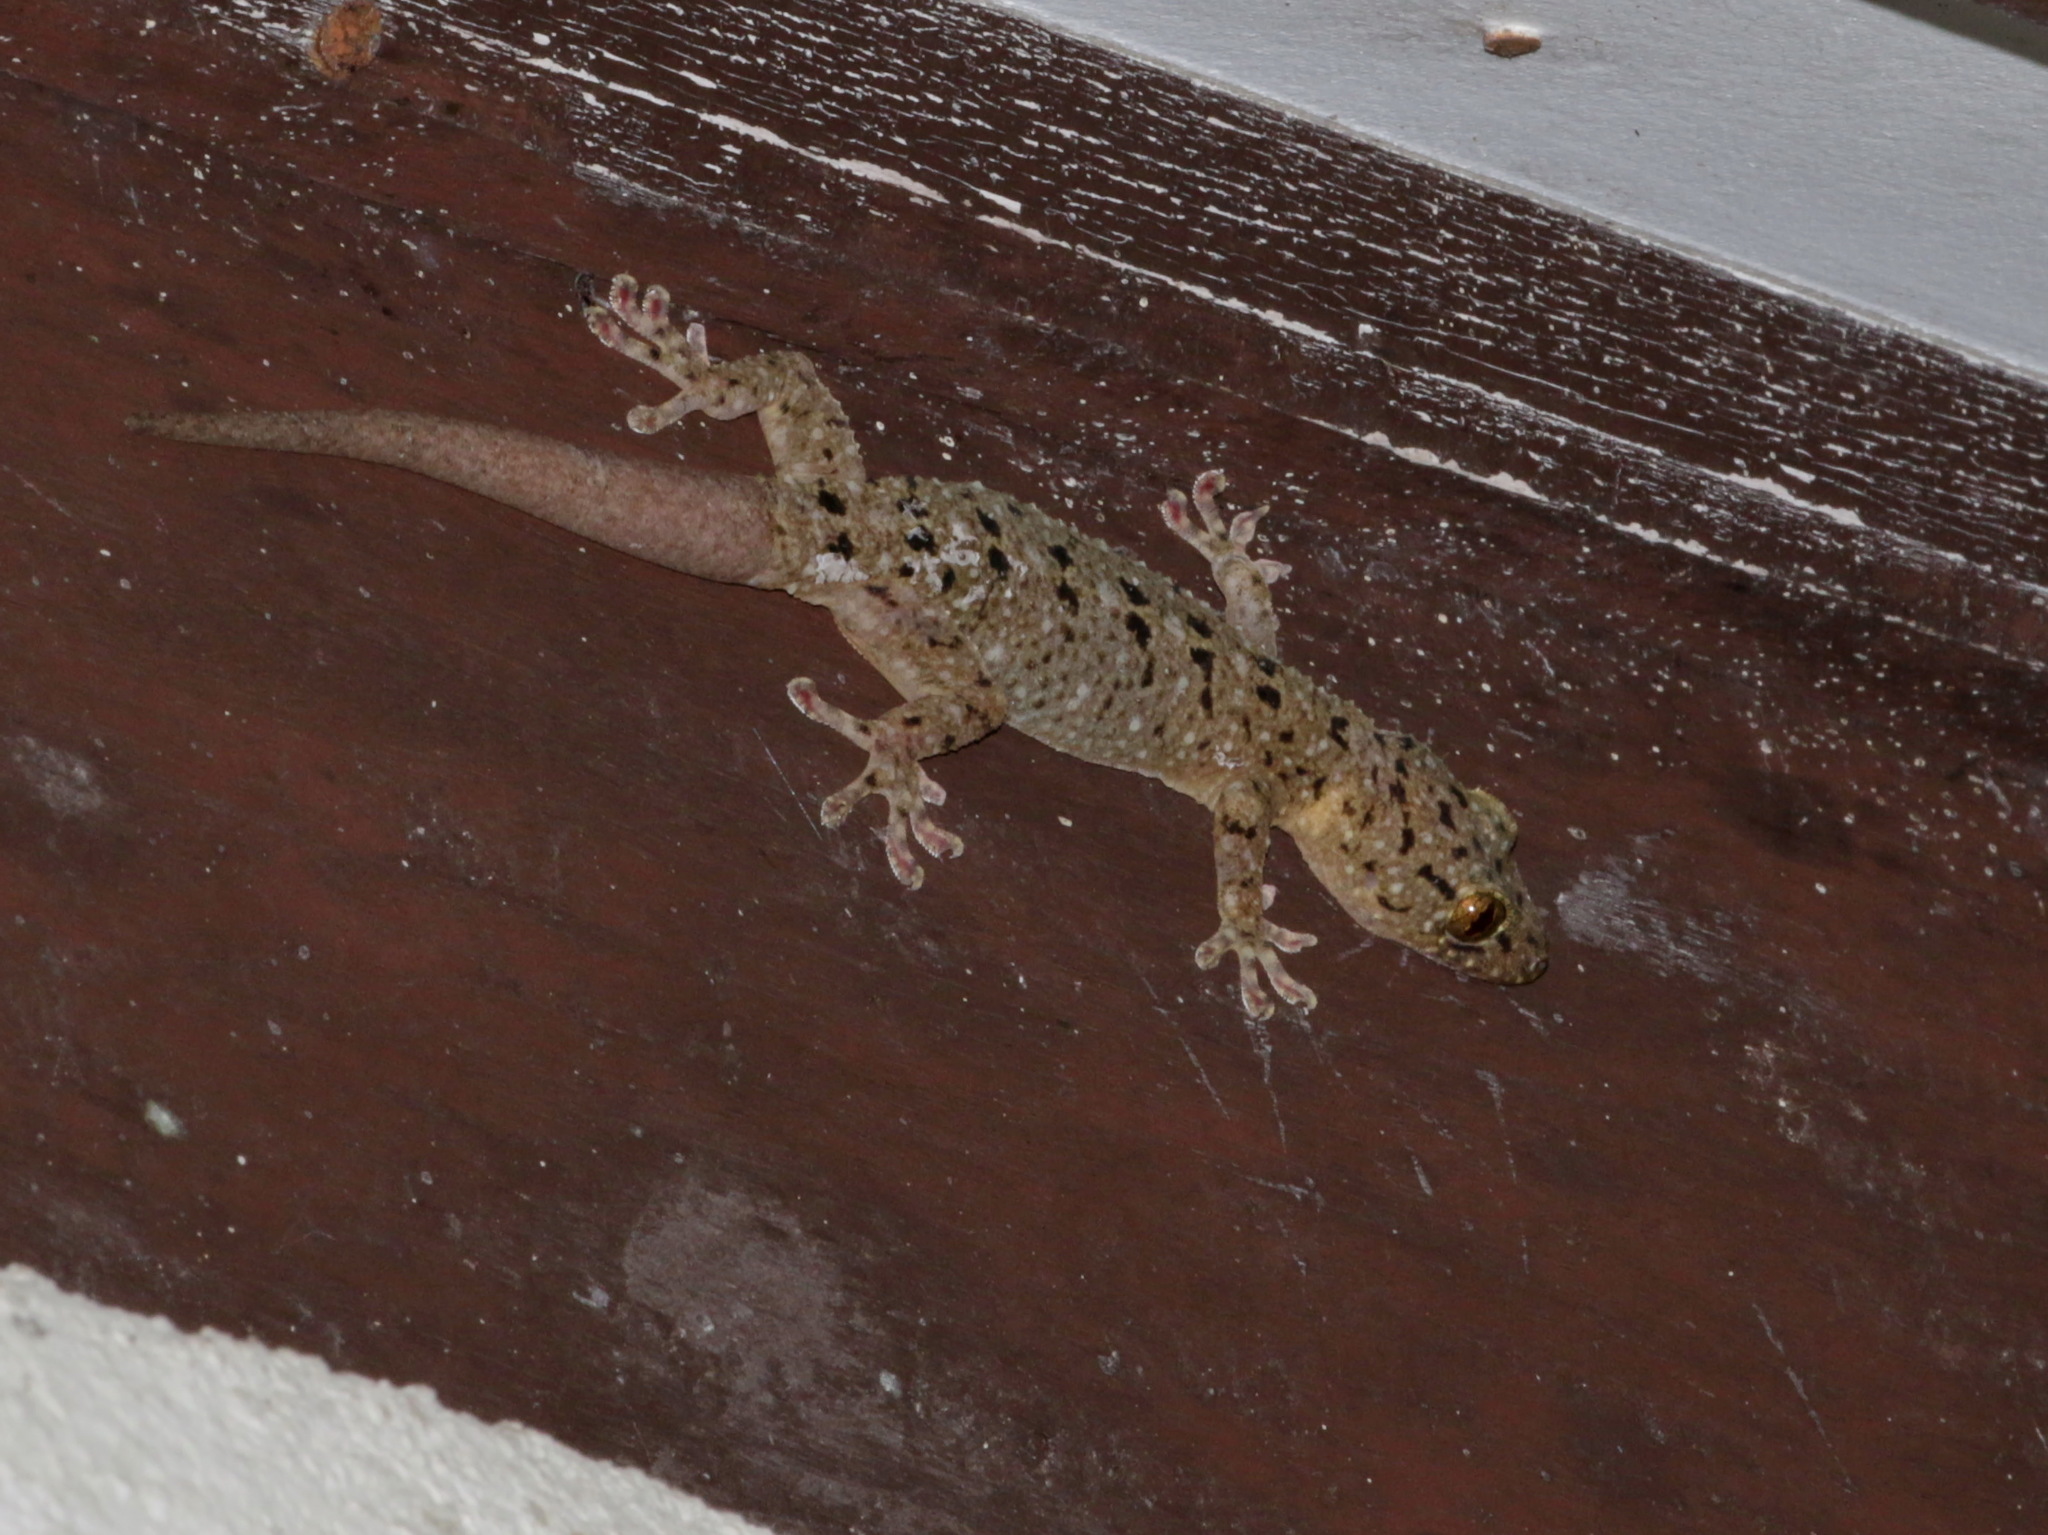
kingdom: Animalia
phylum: Chordata
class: Squamata
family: Gekkonidae
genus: Gekko
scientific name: Gekko monarchus
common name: Spotted house gecko
